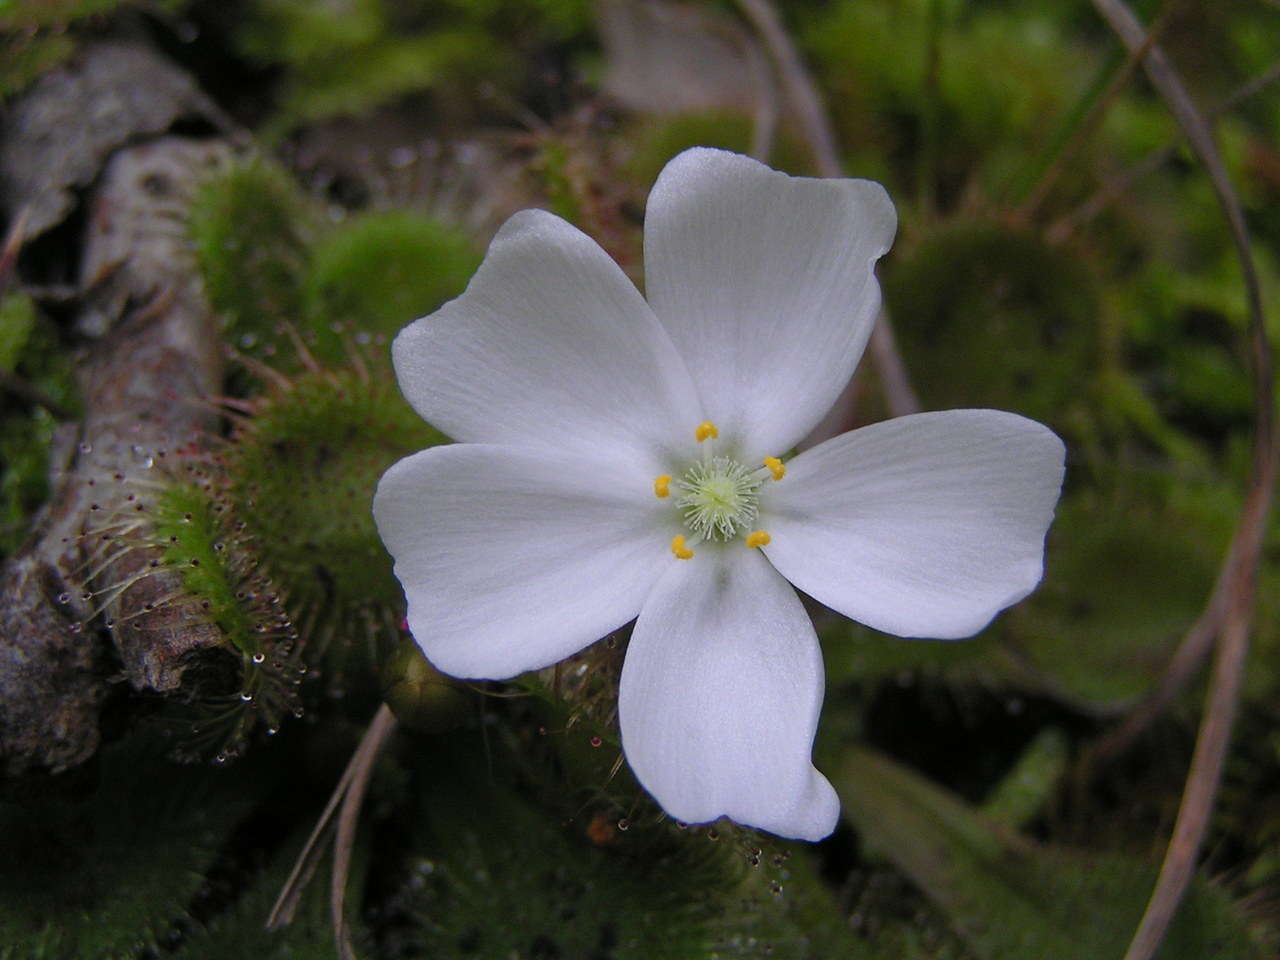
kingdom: Plantae
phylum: Tracheophyta
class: Magnoliopsida
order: Caryophyllales
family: Droseraceae
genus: Drosera
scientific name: Drosera aberrans
